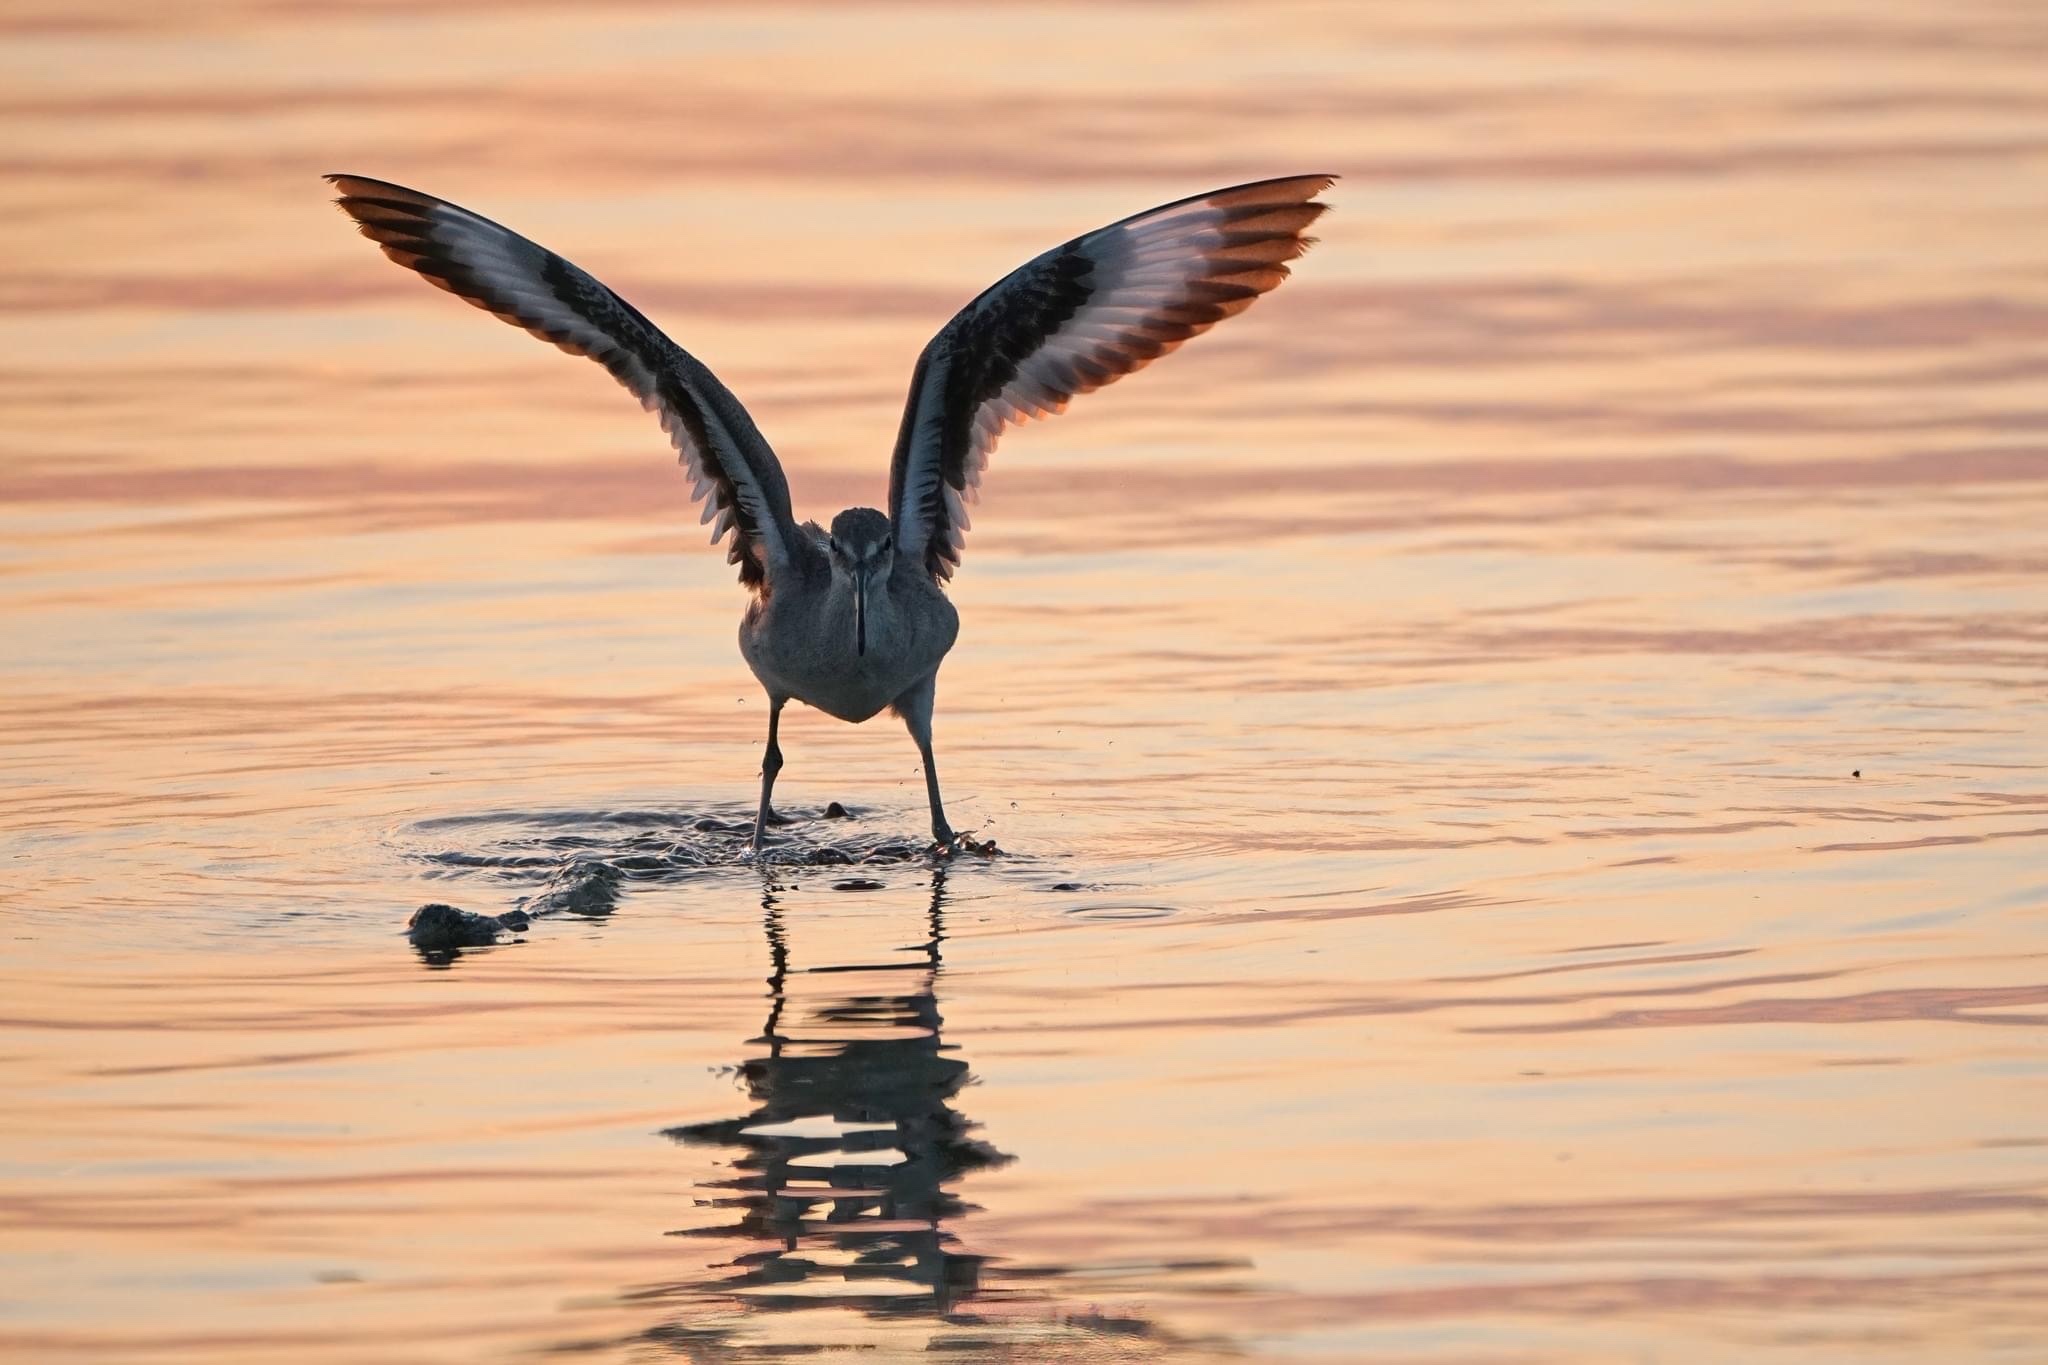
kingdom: Animalia
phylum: Chordata
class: Aves
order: Charadriiformes
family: Scolopacidae
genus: Tringa
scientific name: Tringa semipalmata
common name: Willet
